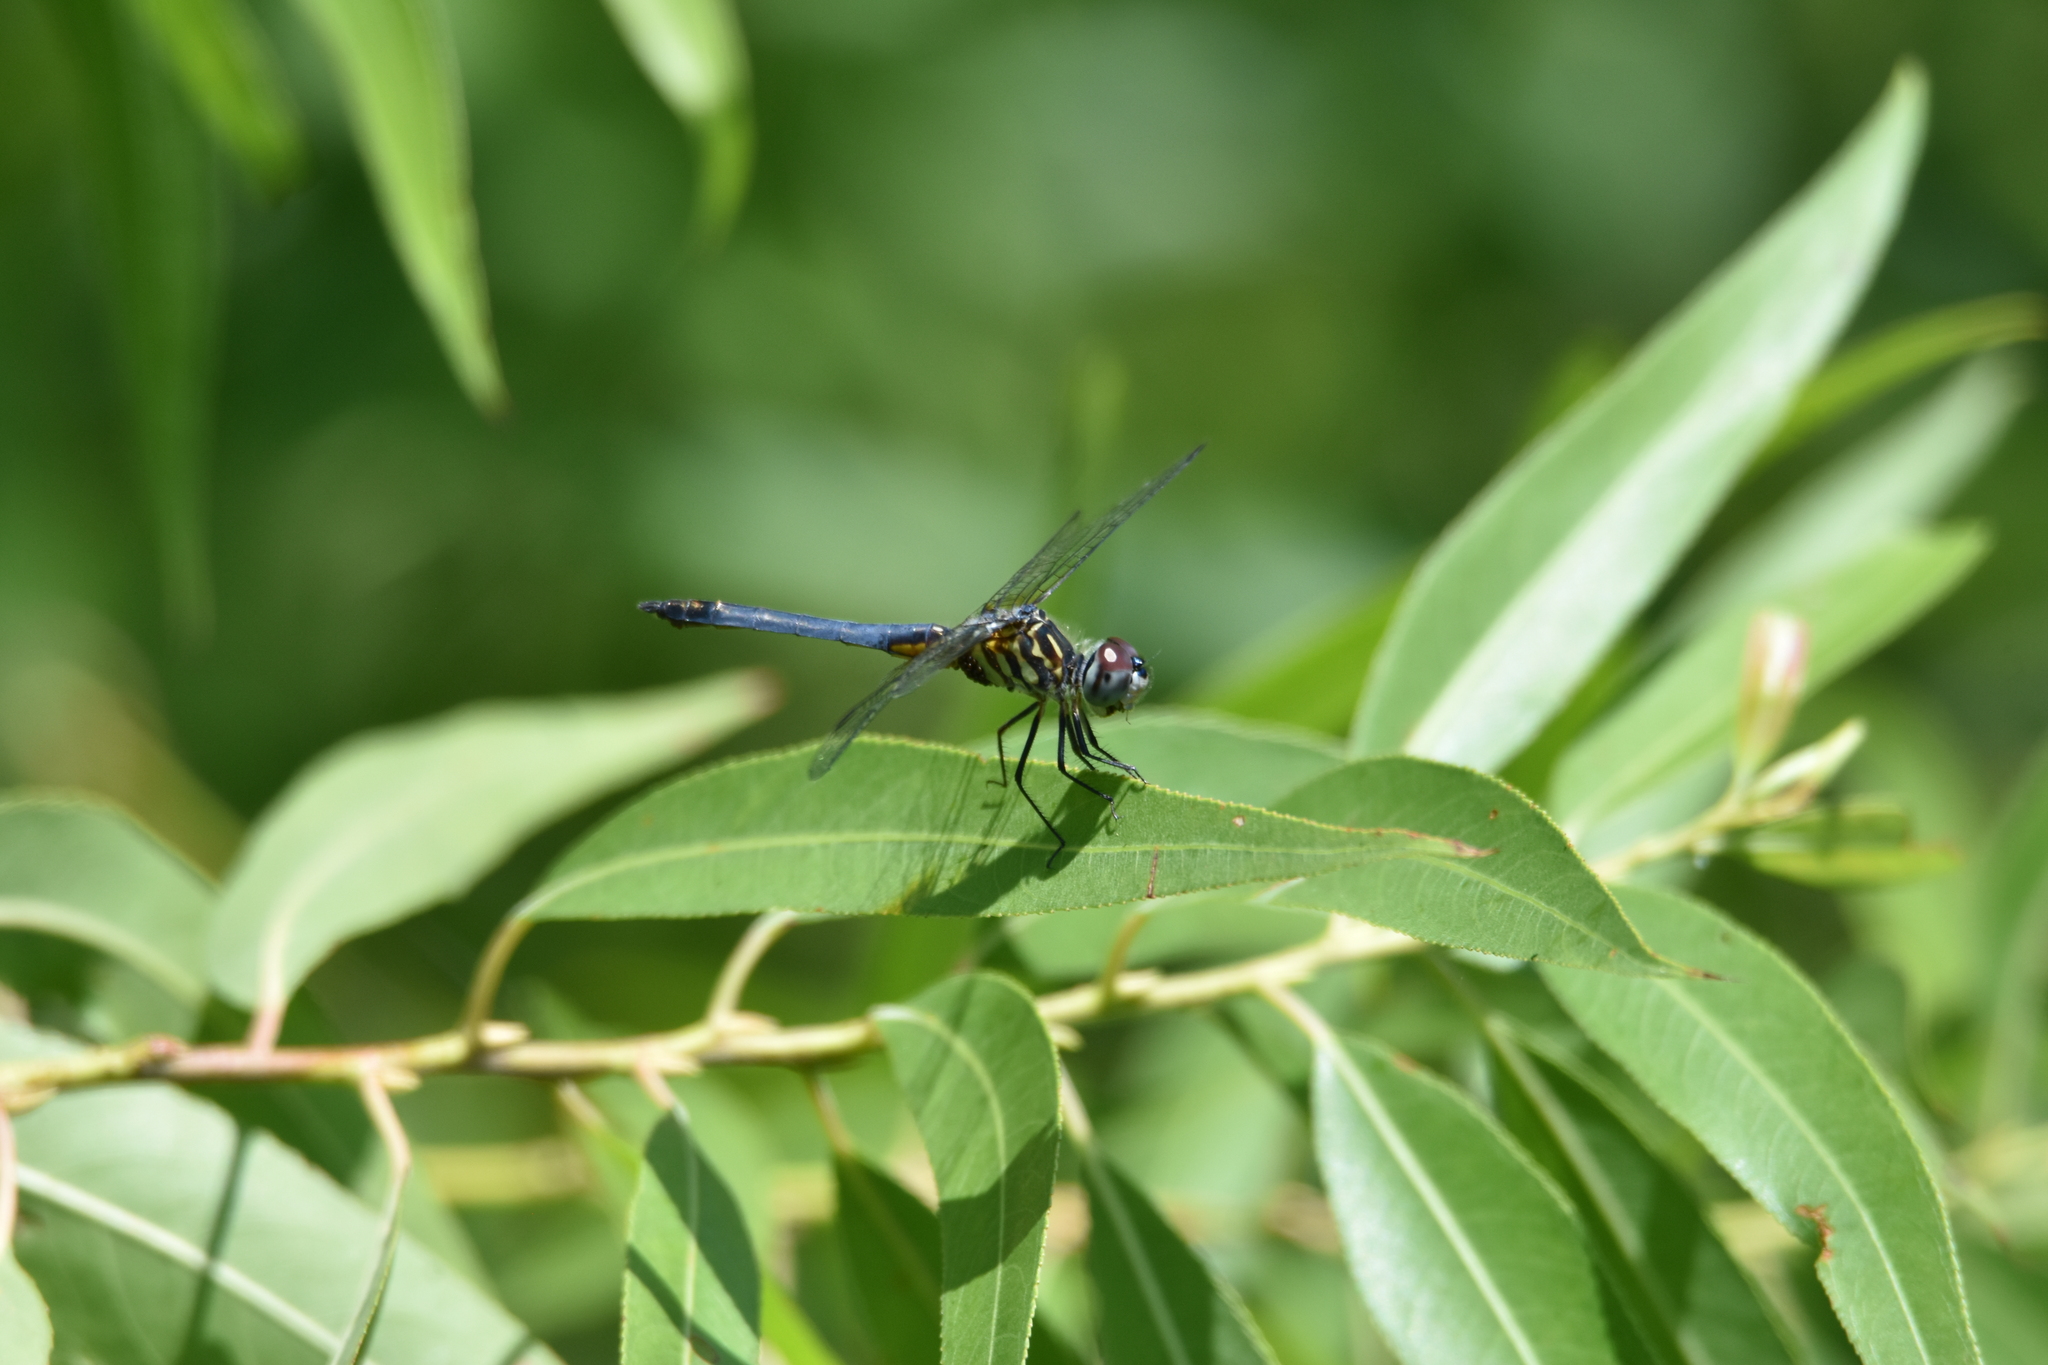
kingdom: Animalia
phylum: Arthropoda
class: Insecta
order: Odonata
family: Libellulidae
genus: Pachydiplax
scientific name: Pachydiplax longipennis
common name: Blue dasher
